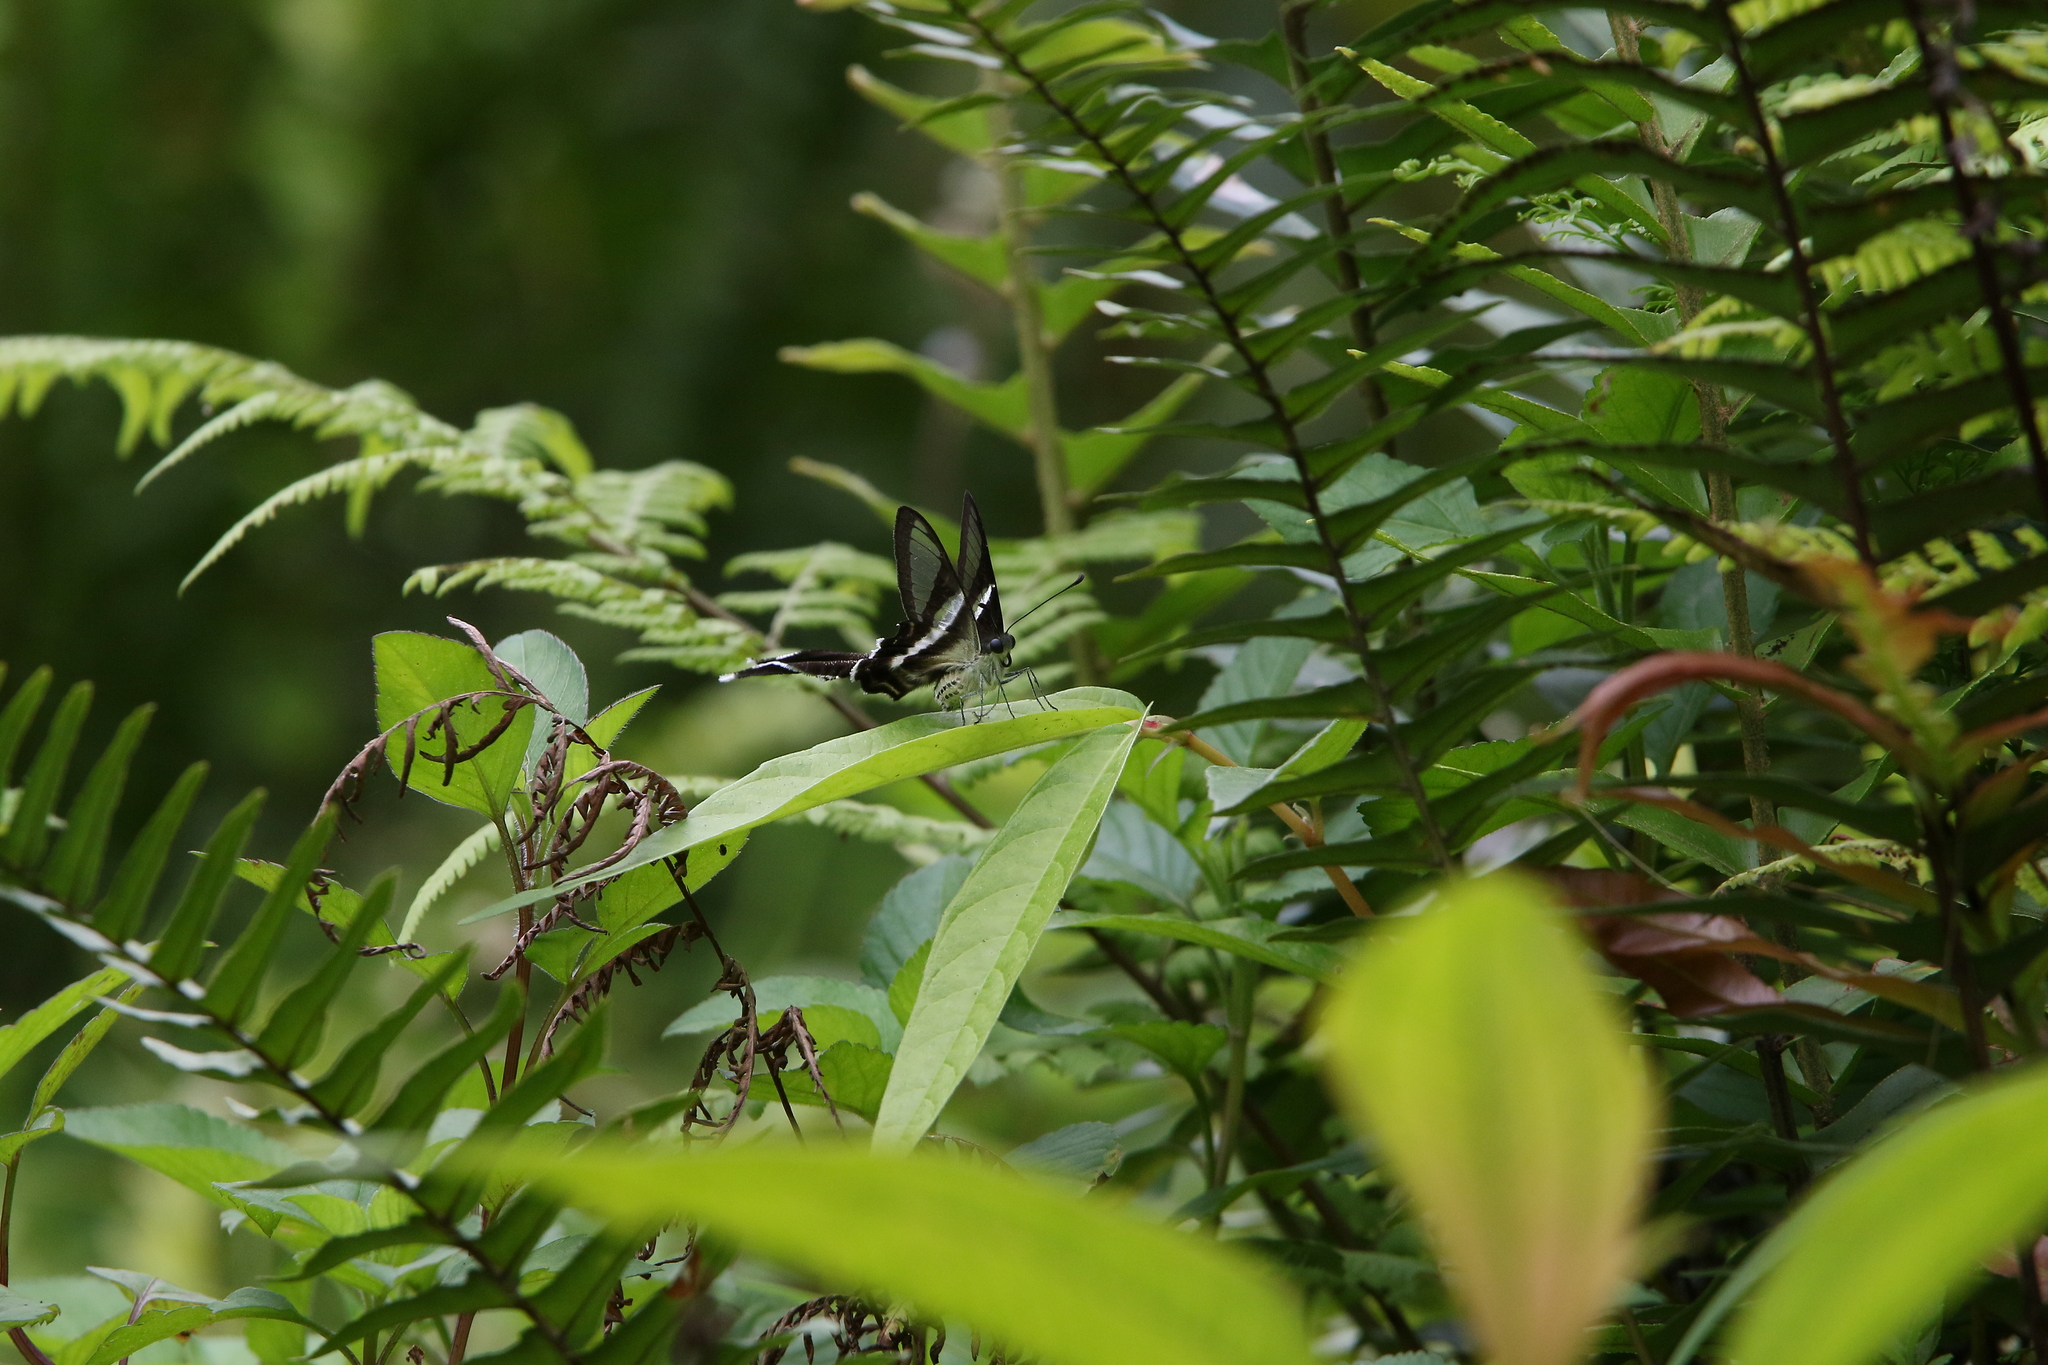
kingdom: Animalia
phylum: Arthropoda
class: Insecta
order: Lepidoptera
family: Papilionidae
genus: Lamproptera
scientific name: Lamproptera curius
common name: White dragontail
